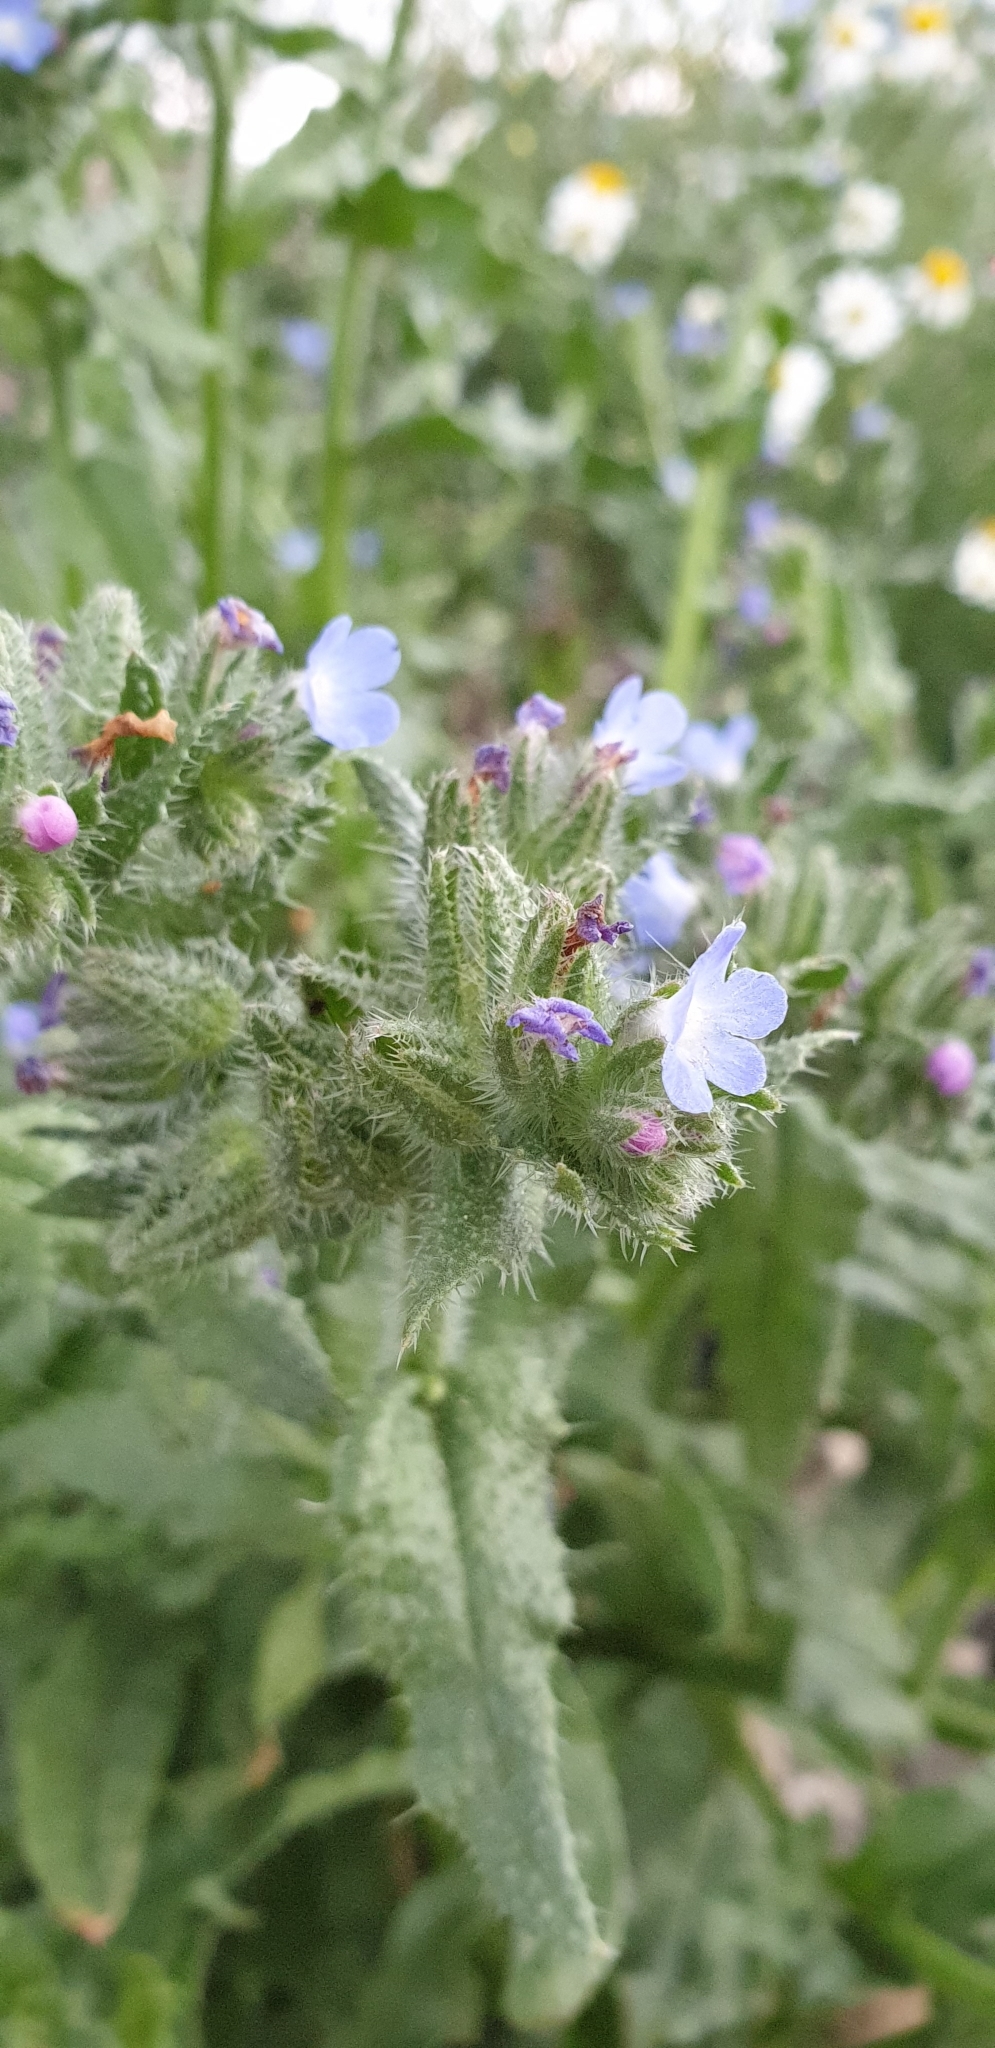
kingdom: Plantae
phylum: Tracheophyta
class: Magnoliopsida
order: Boraginales
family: Boraginaceae
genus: Lycopsis
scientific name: Lycopsis arvensis
